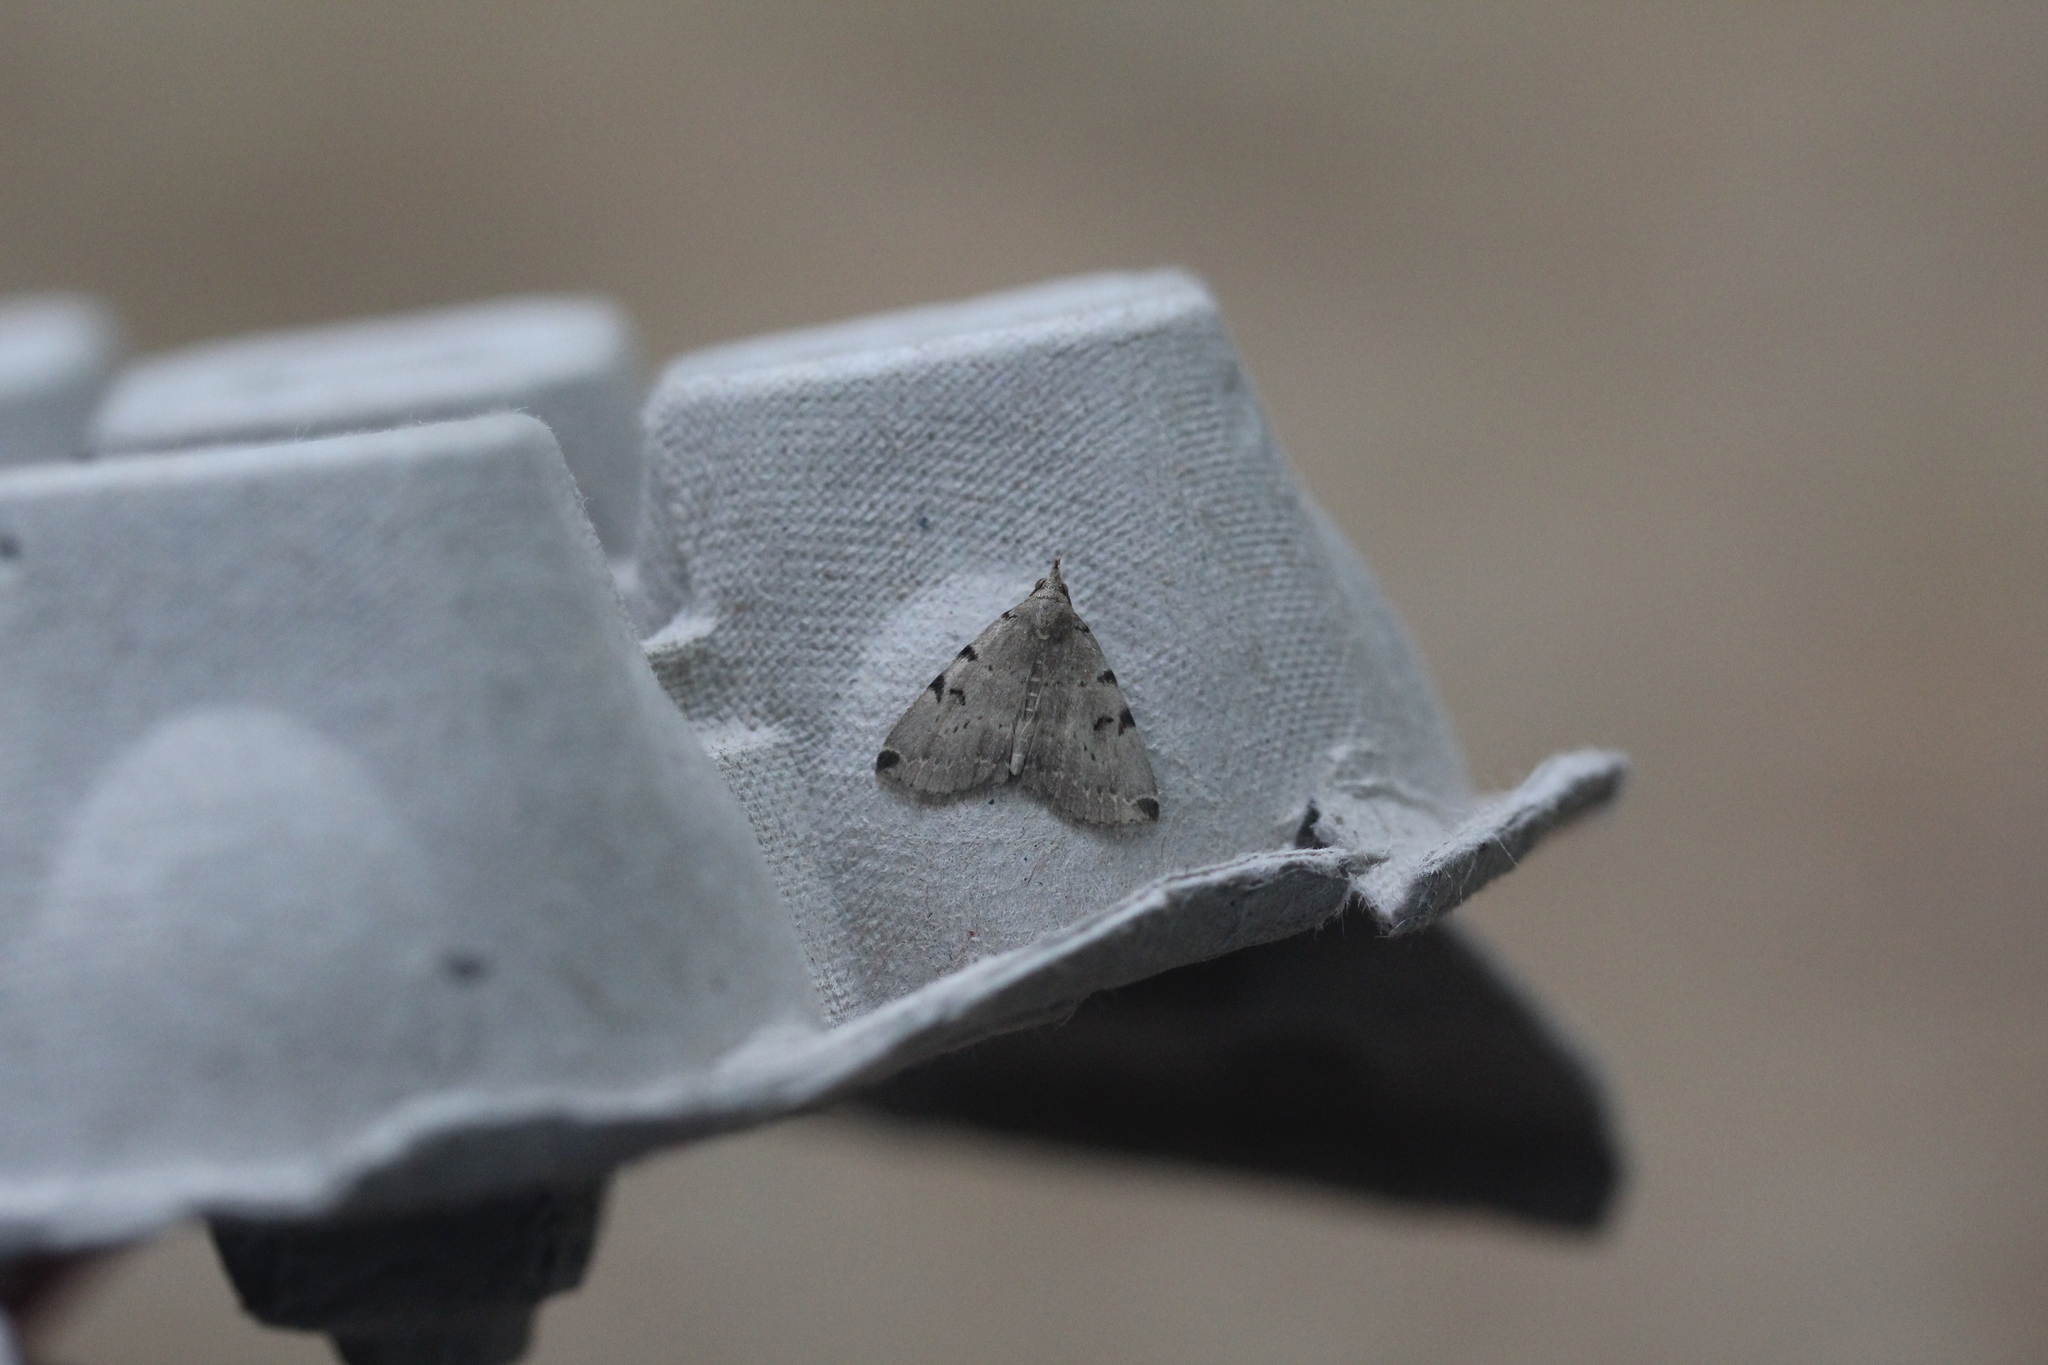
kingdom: Animalia
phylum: Arthropoda
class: Insecta
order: Lepidoptera
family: Erebidae
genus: Zanclognatha
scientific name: Zanclognatha lituralis
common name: Lettered fan-foot
